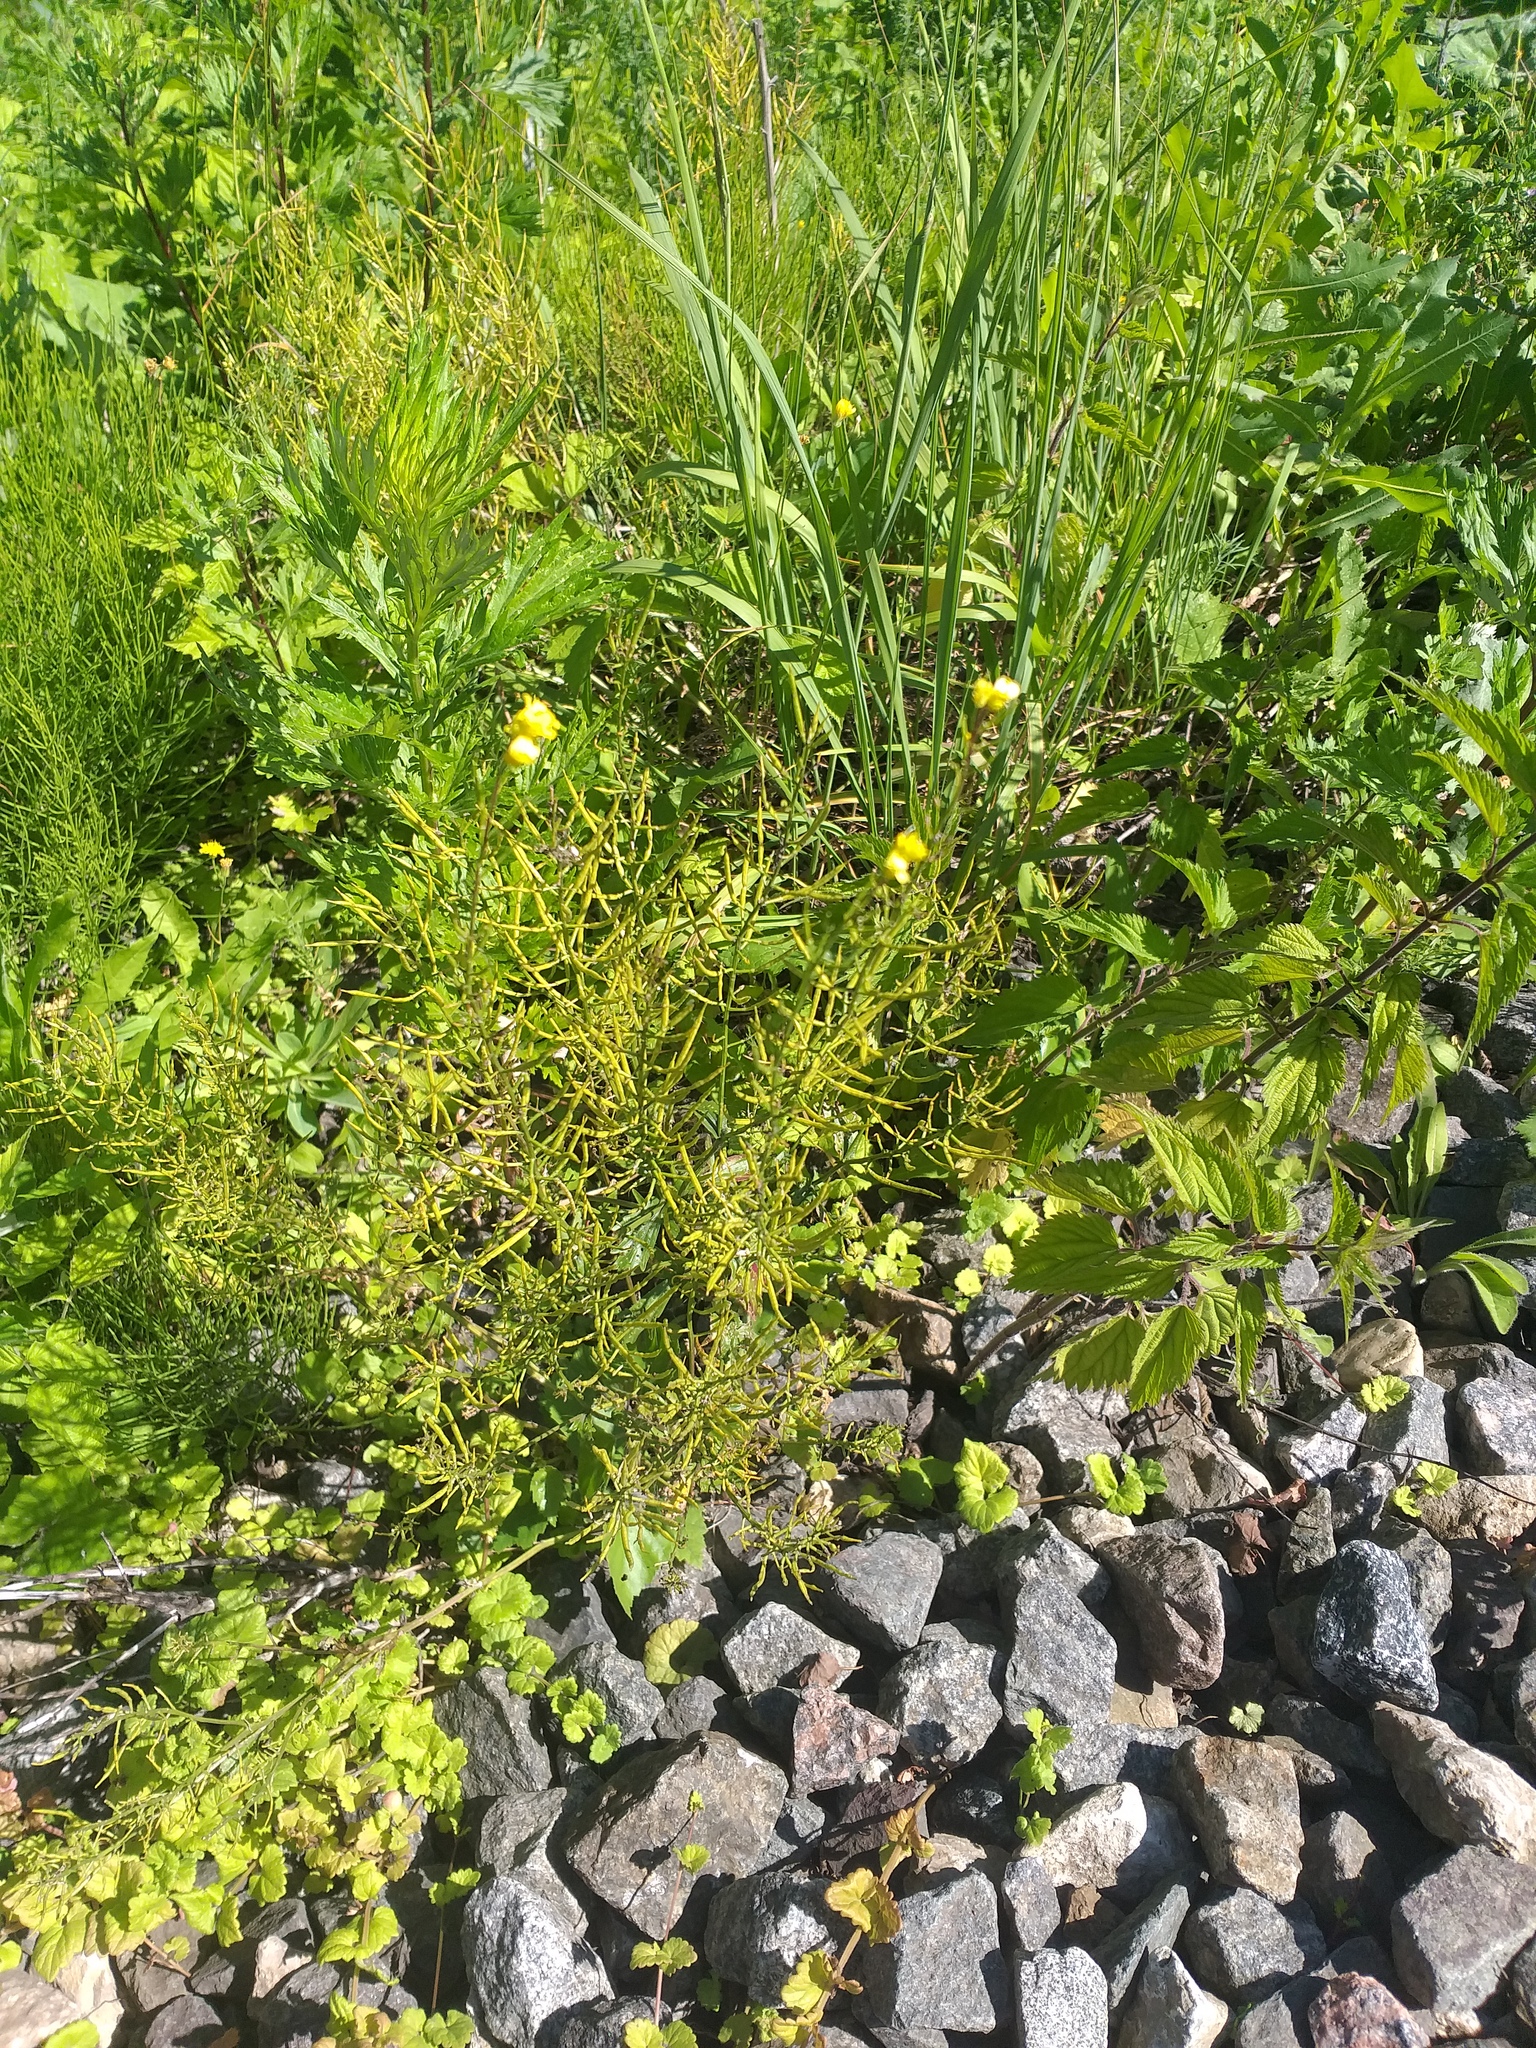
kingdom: Plantae
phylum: Tracheophyta
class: Magnoliopsida
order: Brassicales
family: Brassicaceae
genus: Barbarea
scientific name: Barbarea vulgaris
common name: Cressy-greens
